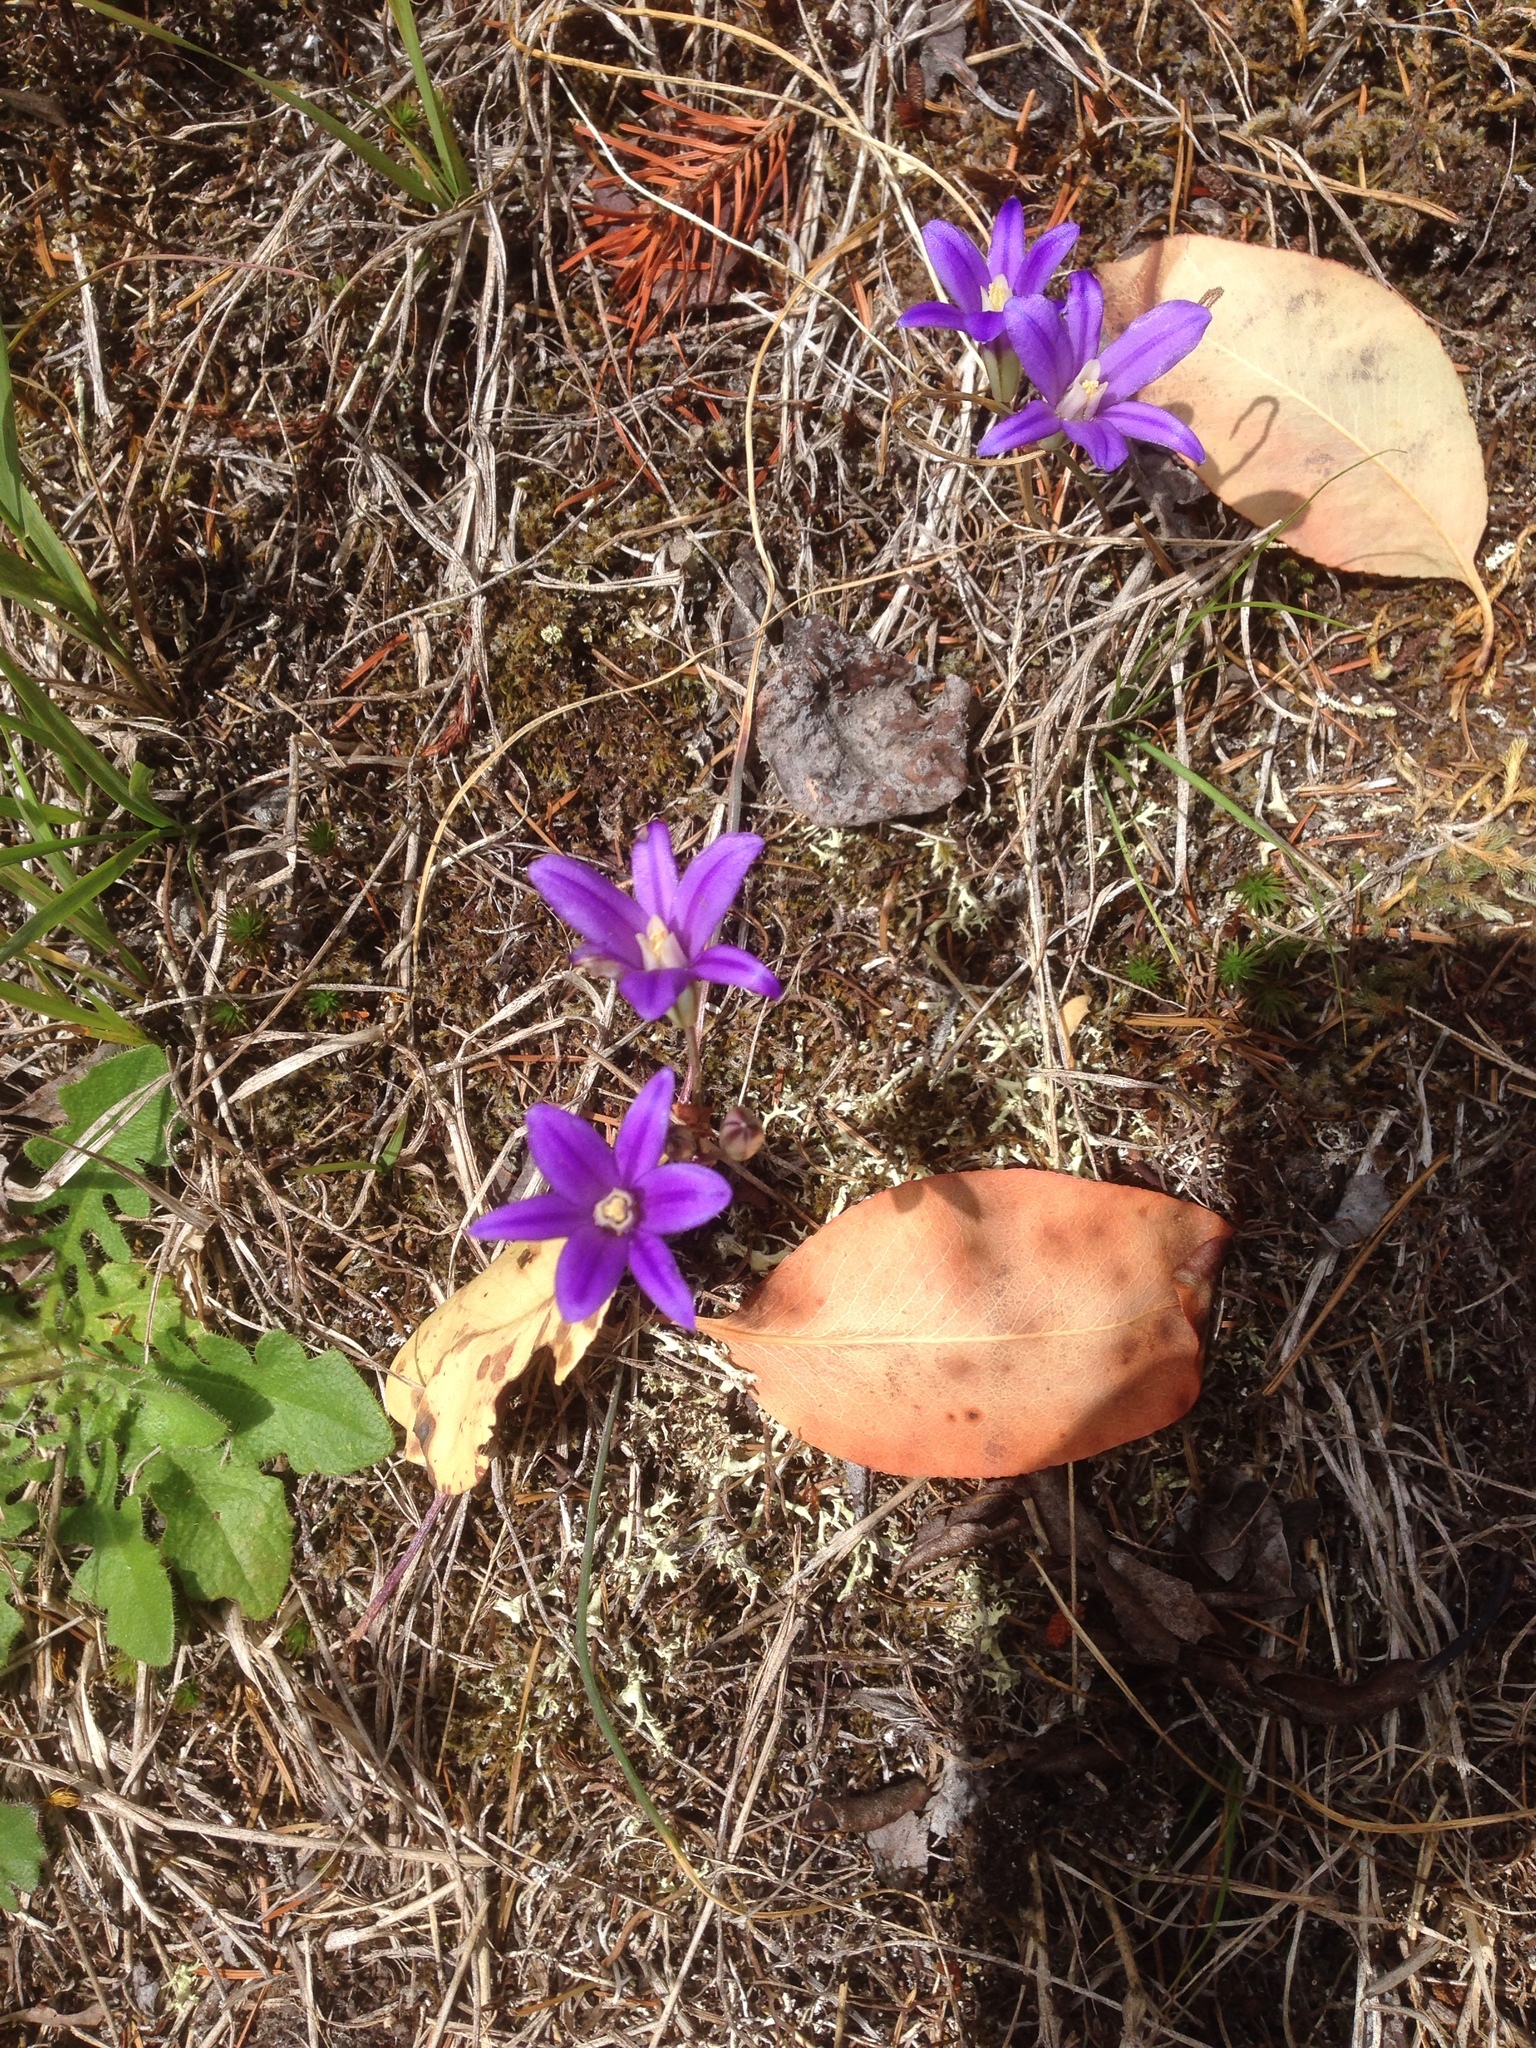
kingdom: Plantae
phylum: Tracheophyta
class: Liliopsida
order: Asparagales
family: Asparagaceae
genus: Brodiaea
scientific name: Brodiaea coronaria
